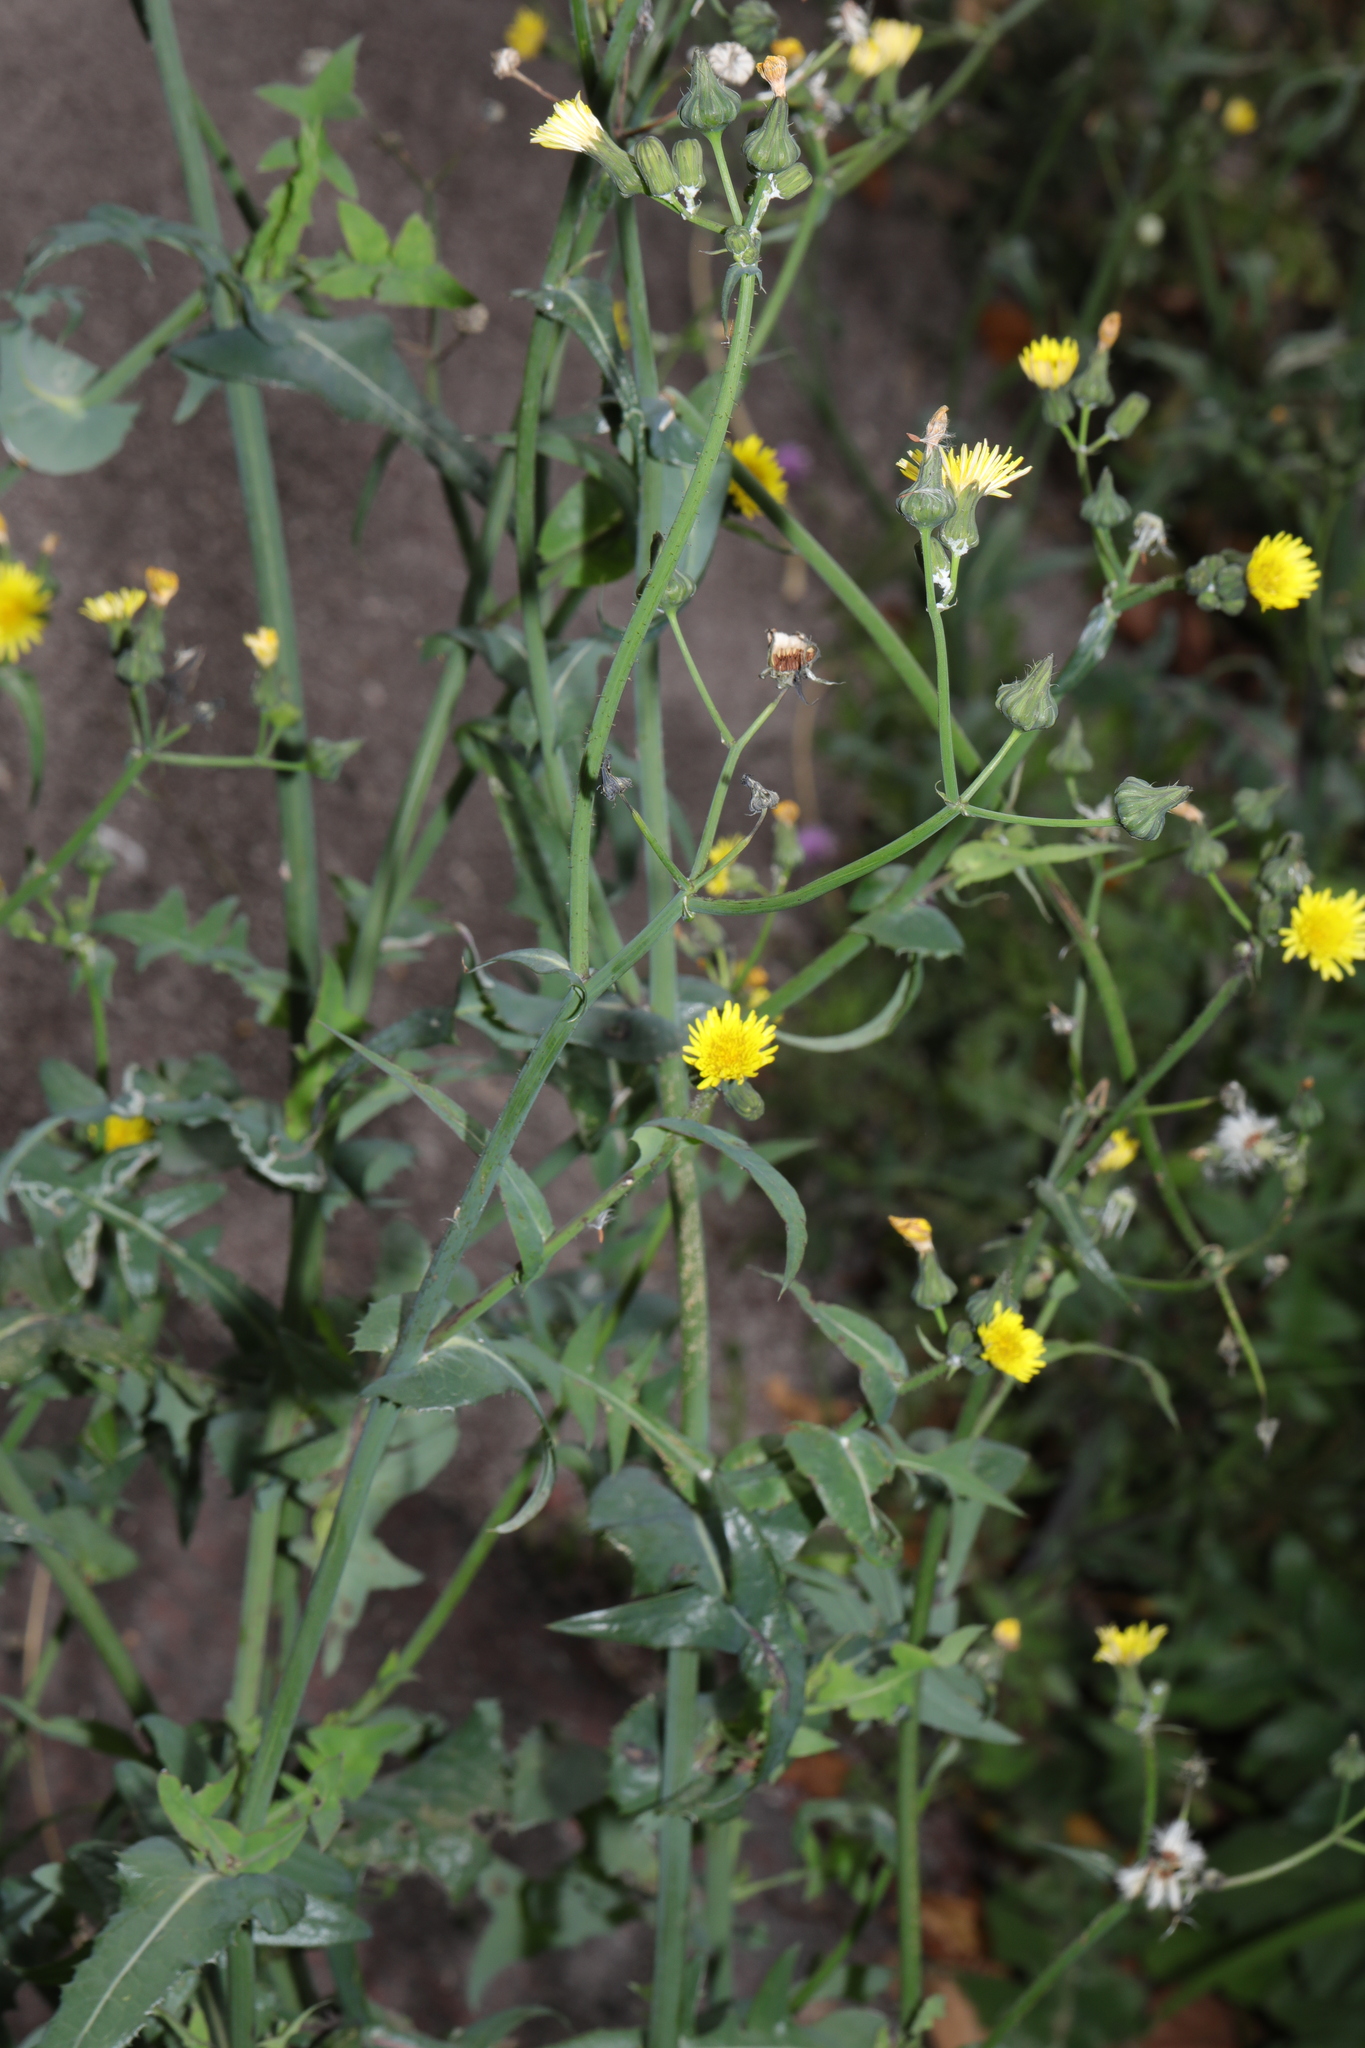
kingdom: Plantae
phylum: Tracheophyta
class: Magnoliopsida
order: Asterales
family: Asteraceae
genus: Sonchus
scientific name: Sonchus oleraceus
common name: Common sowthistle
